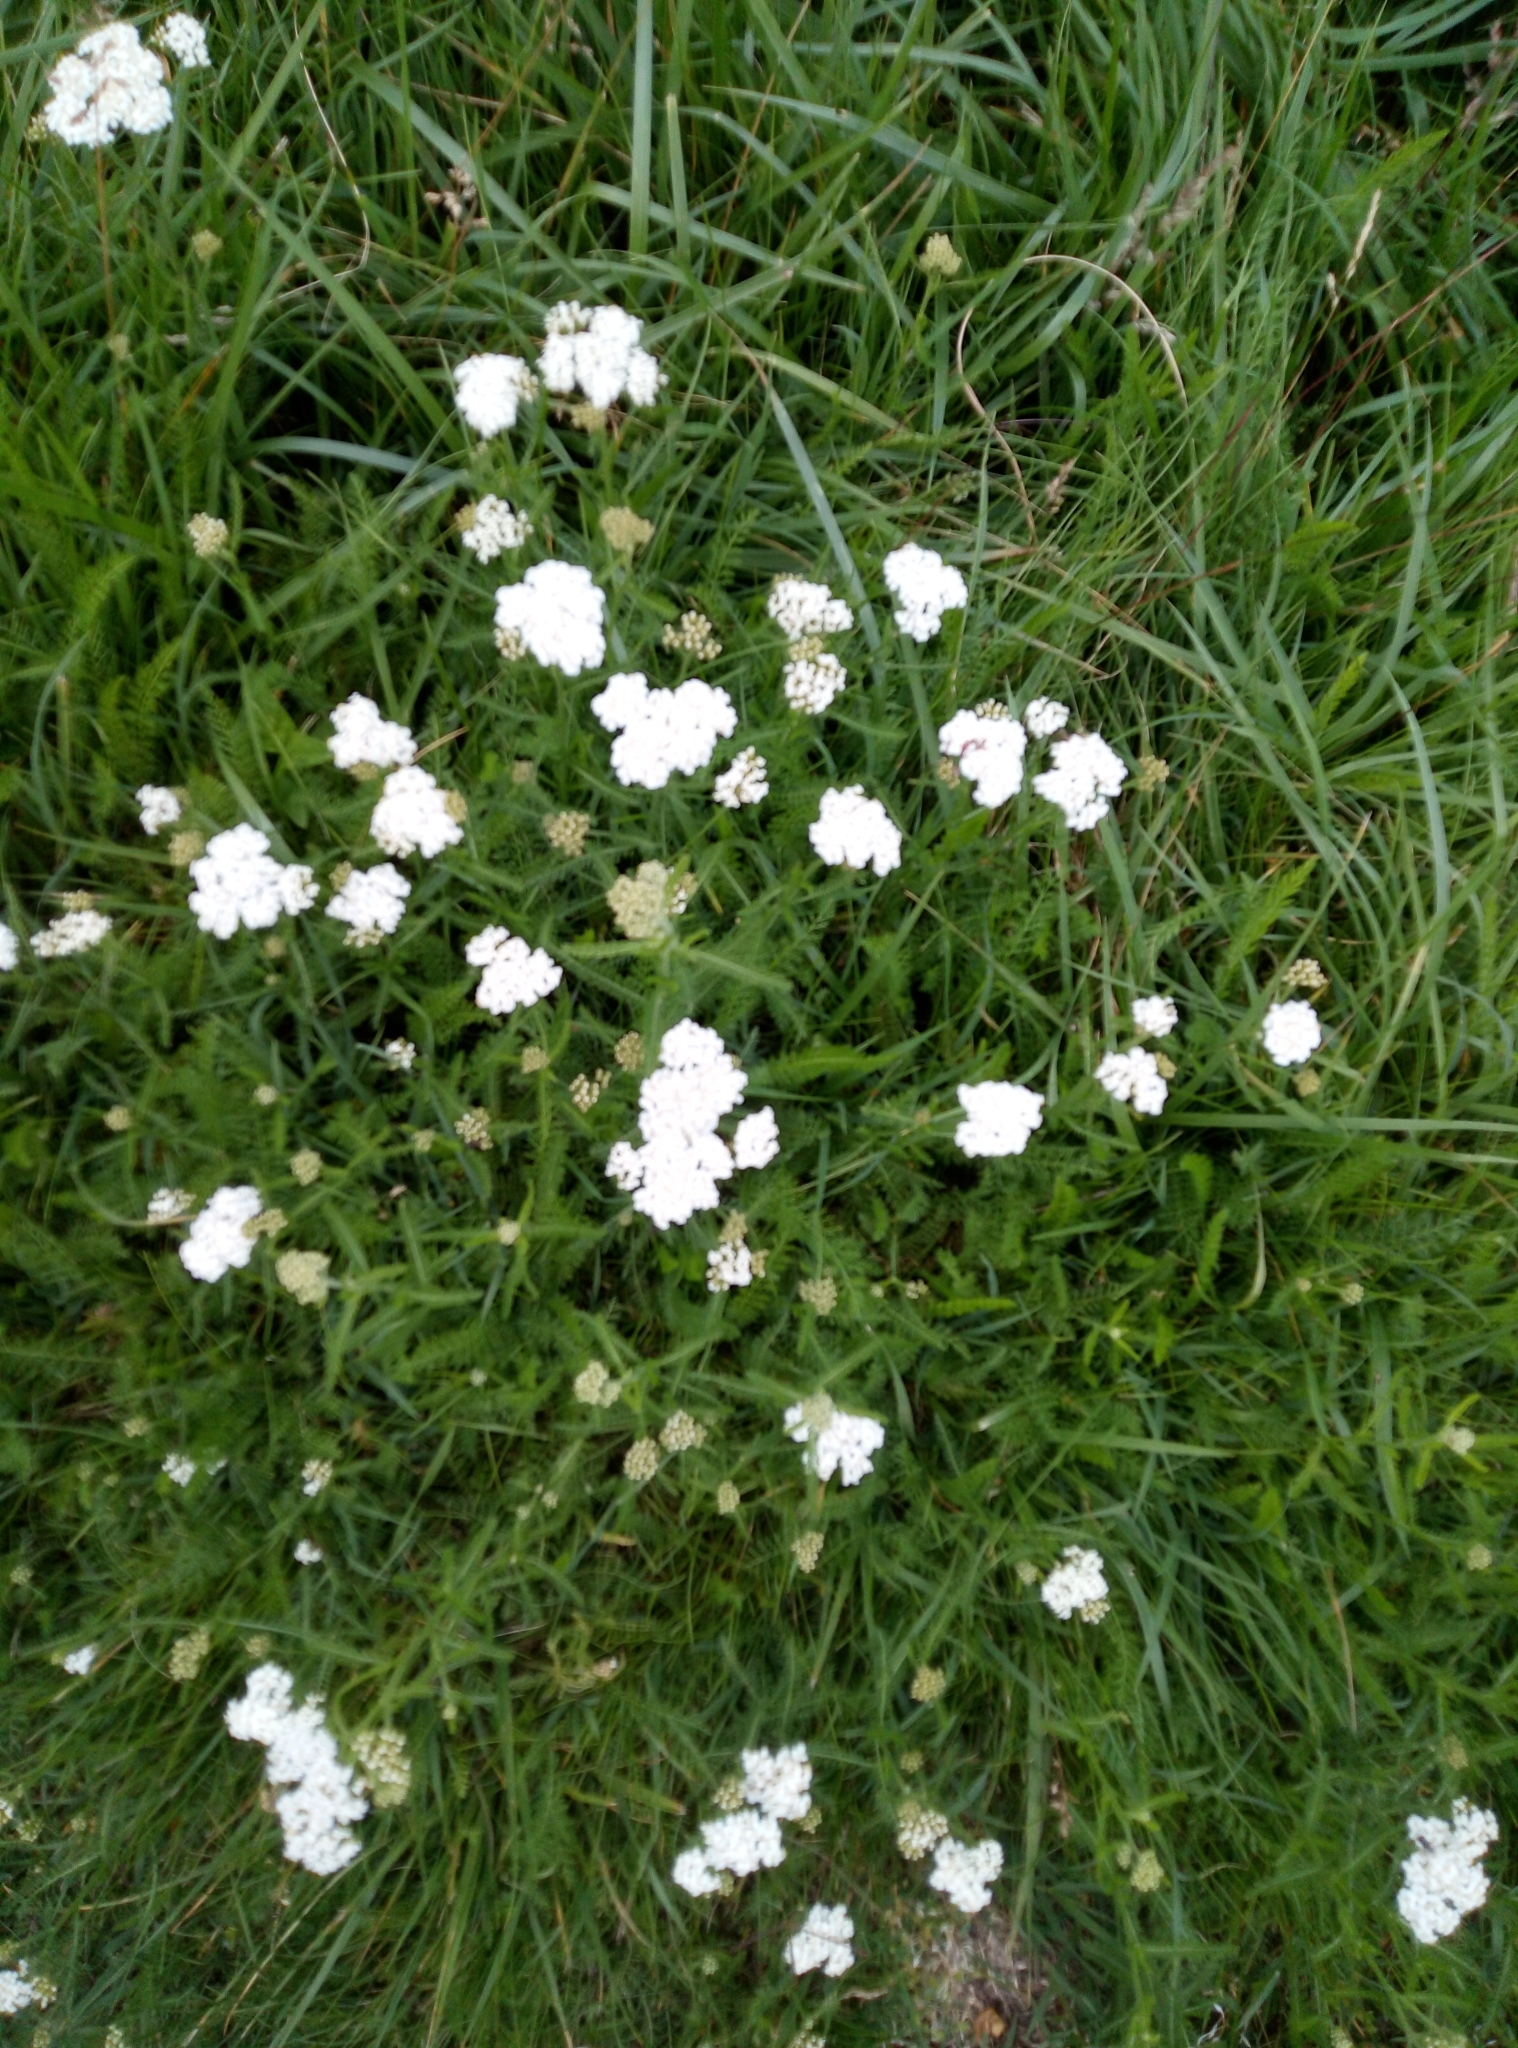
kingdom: Plantae
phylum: Tracheophyta
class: Magnoliopsida
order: Asterales
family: Asteraceae
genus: Achillea
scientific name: Achillea millefolium
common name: Yarrow
